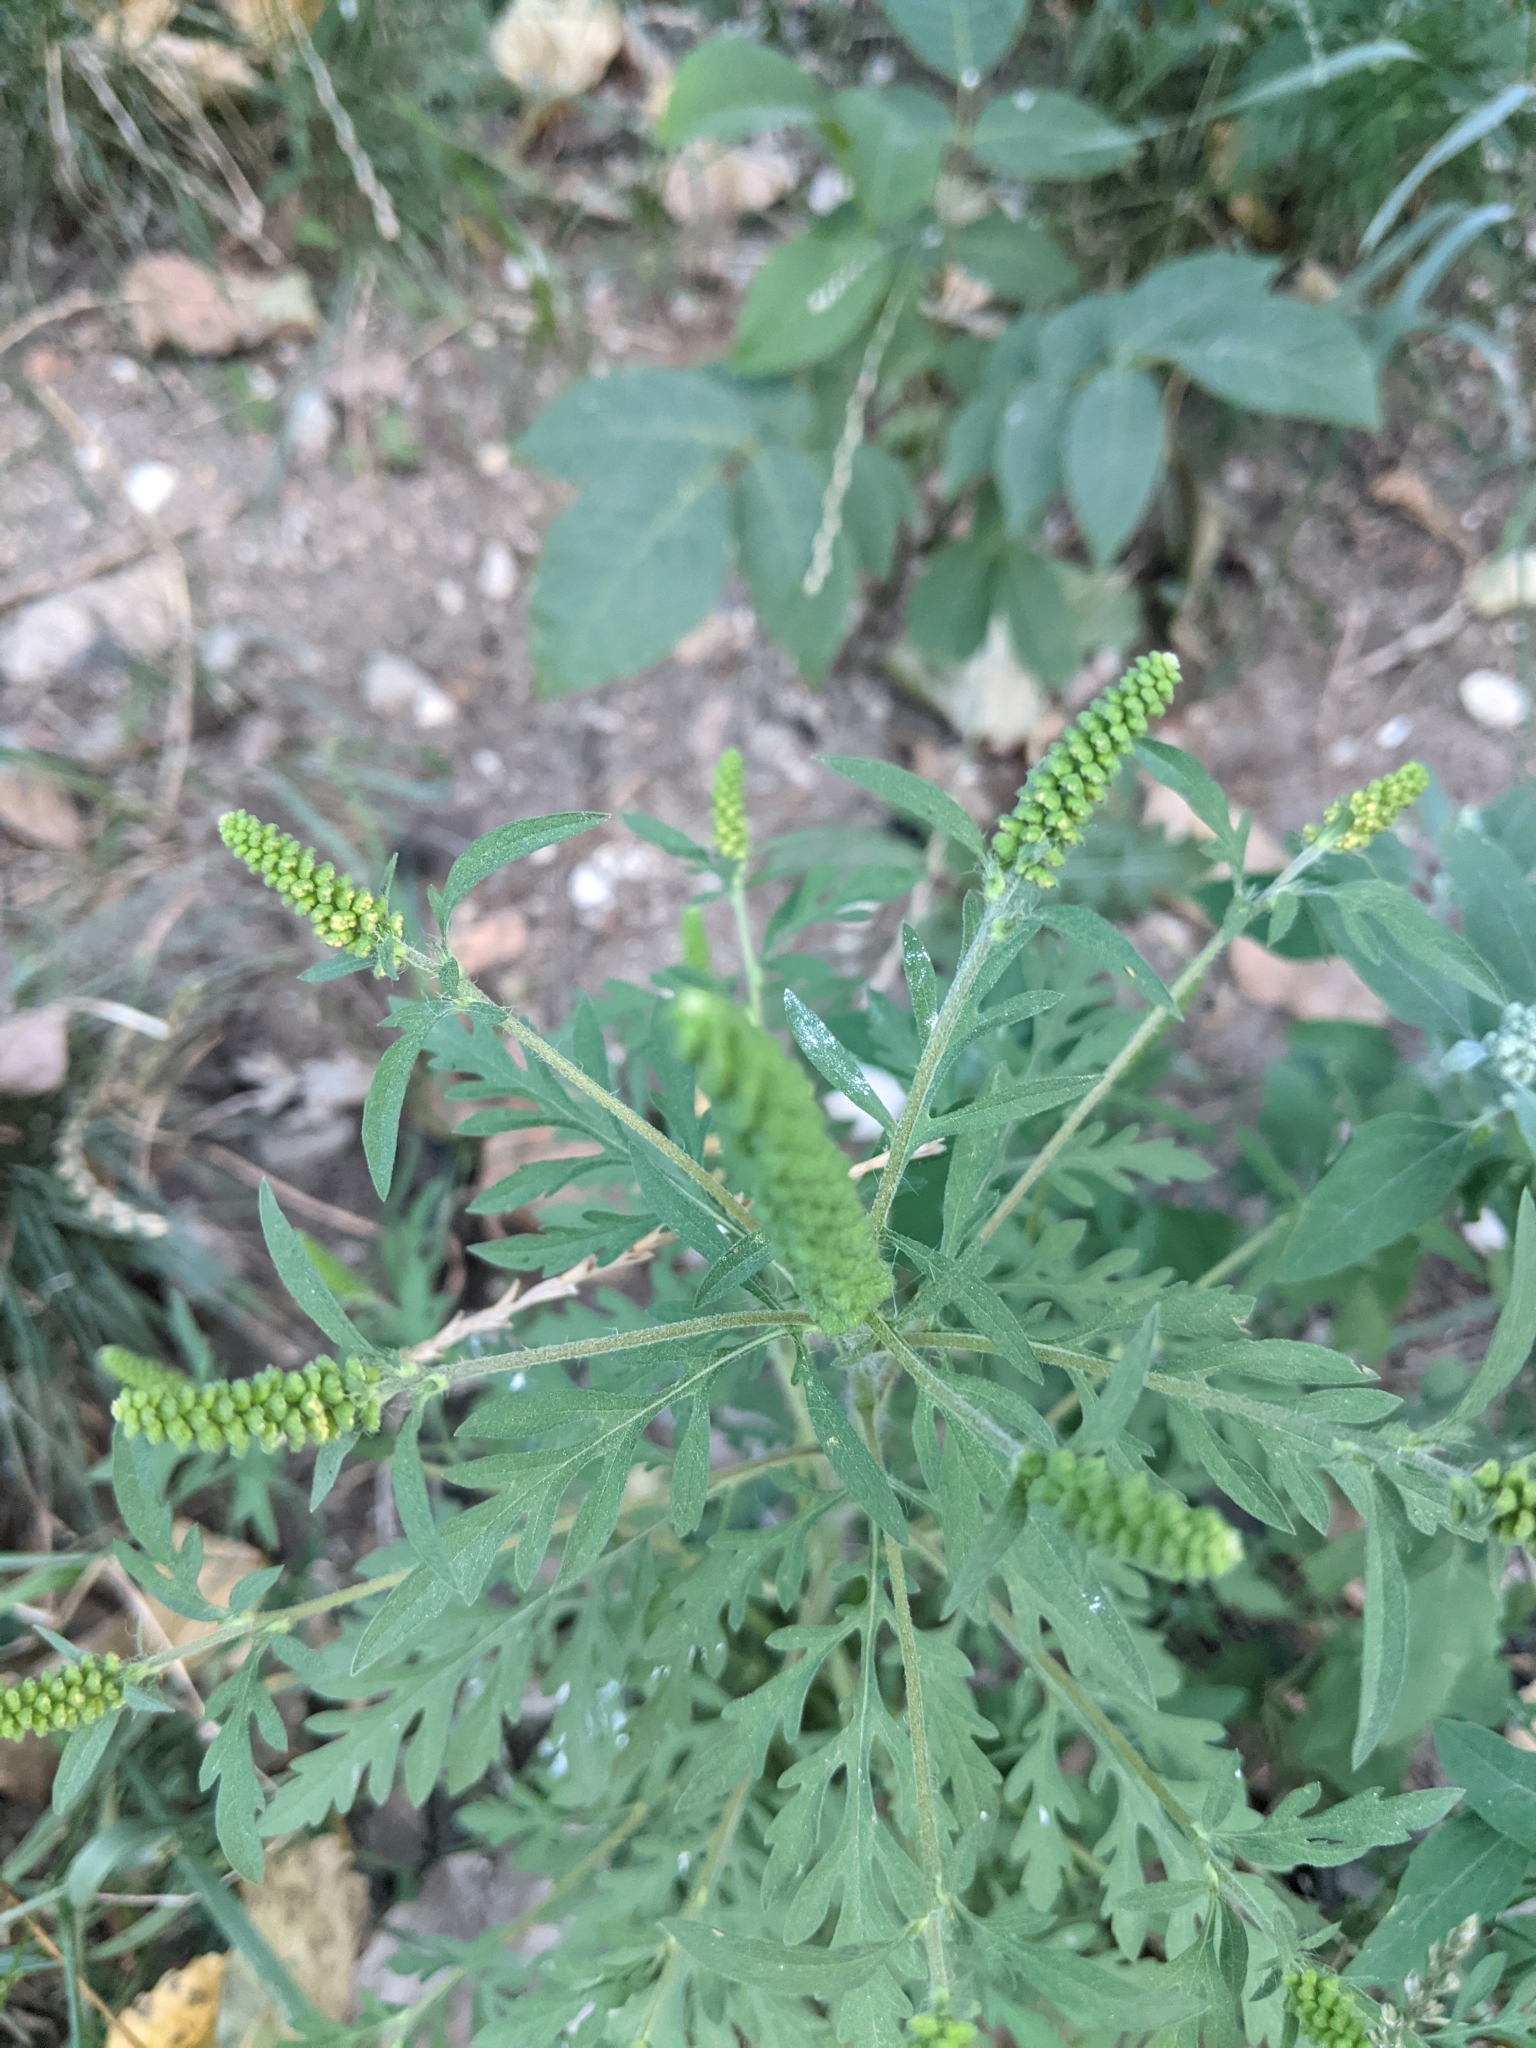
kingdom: Plantae
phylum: Tracheophyta
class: Magnoliopsida
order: Asterales
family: Asteraceae
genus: Ambrosia
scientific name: Ambrosia artemisiifolia
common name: Annual ragweed
